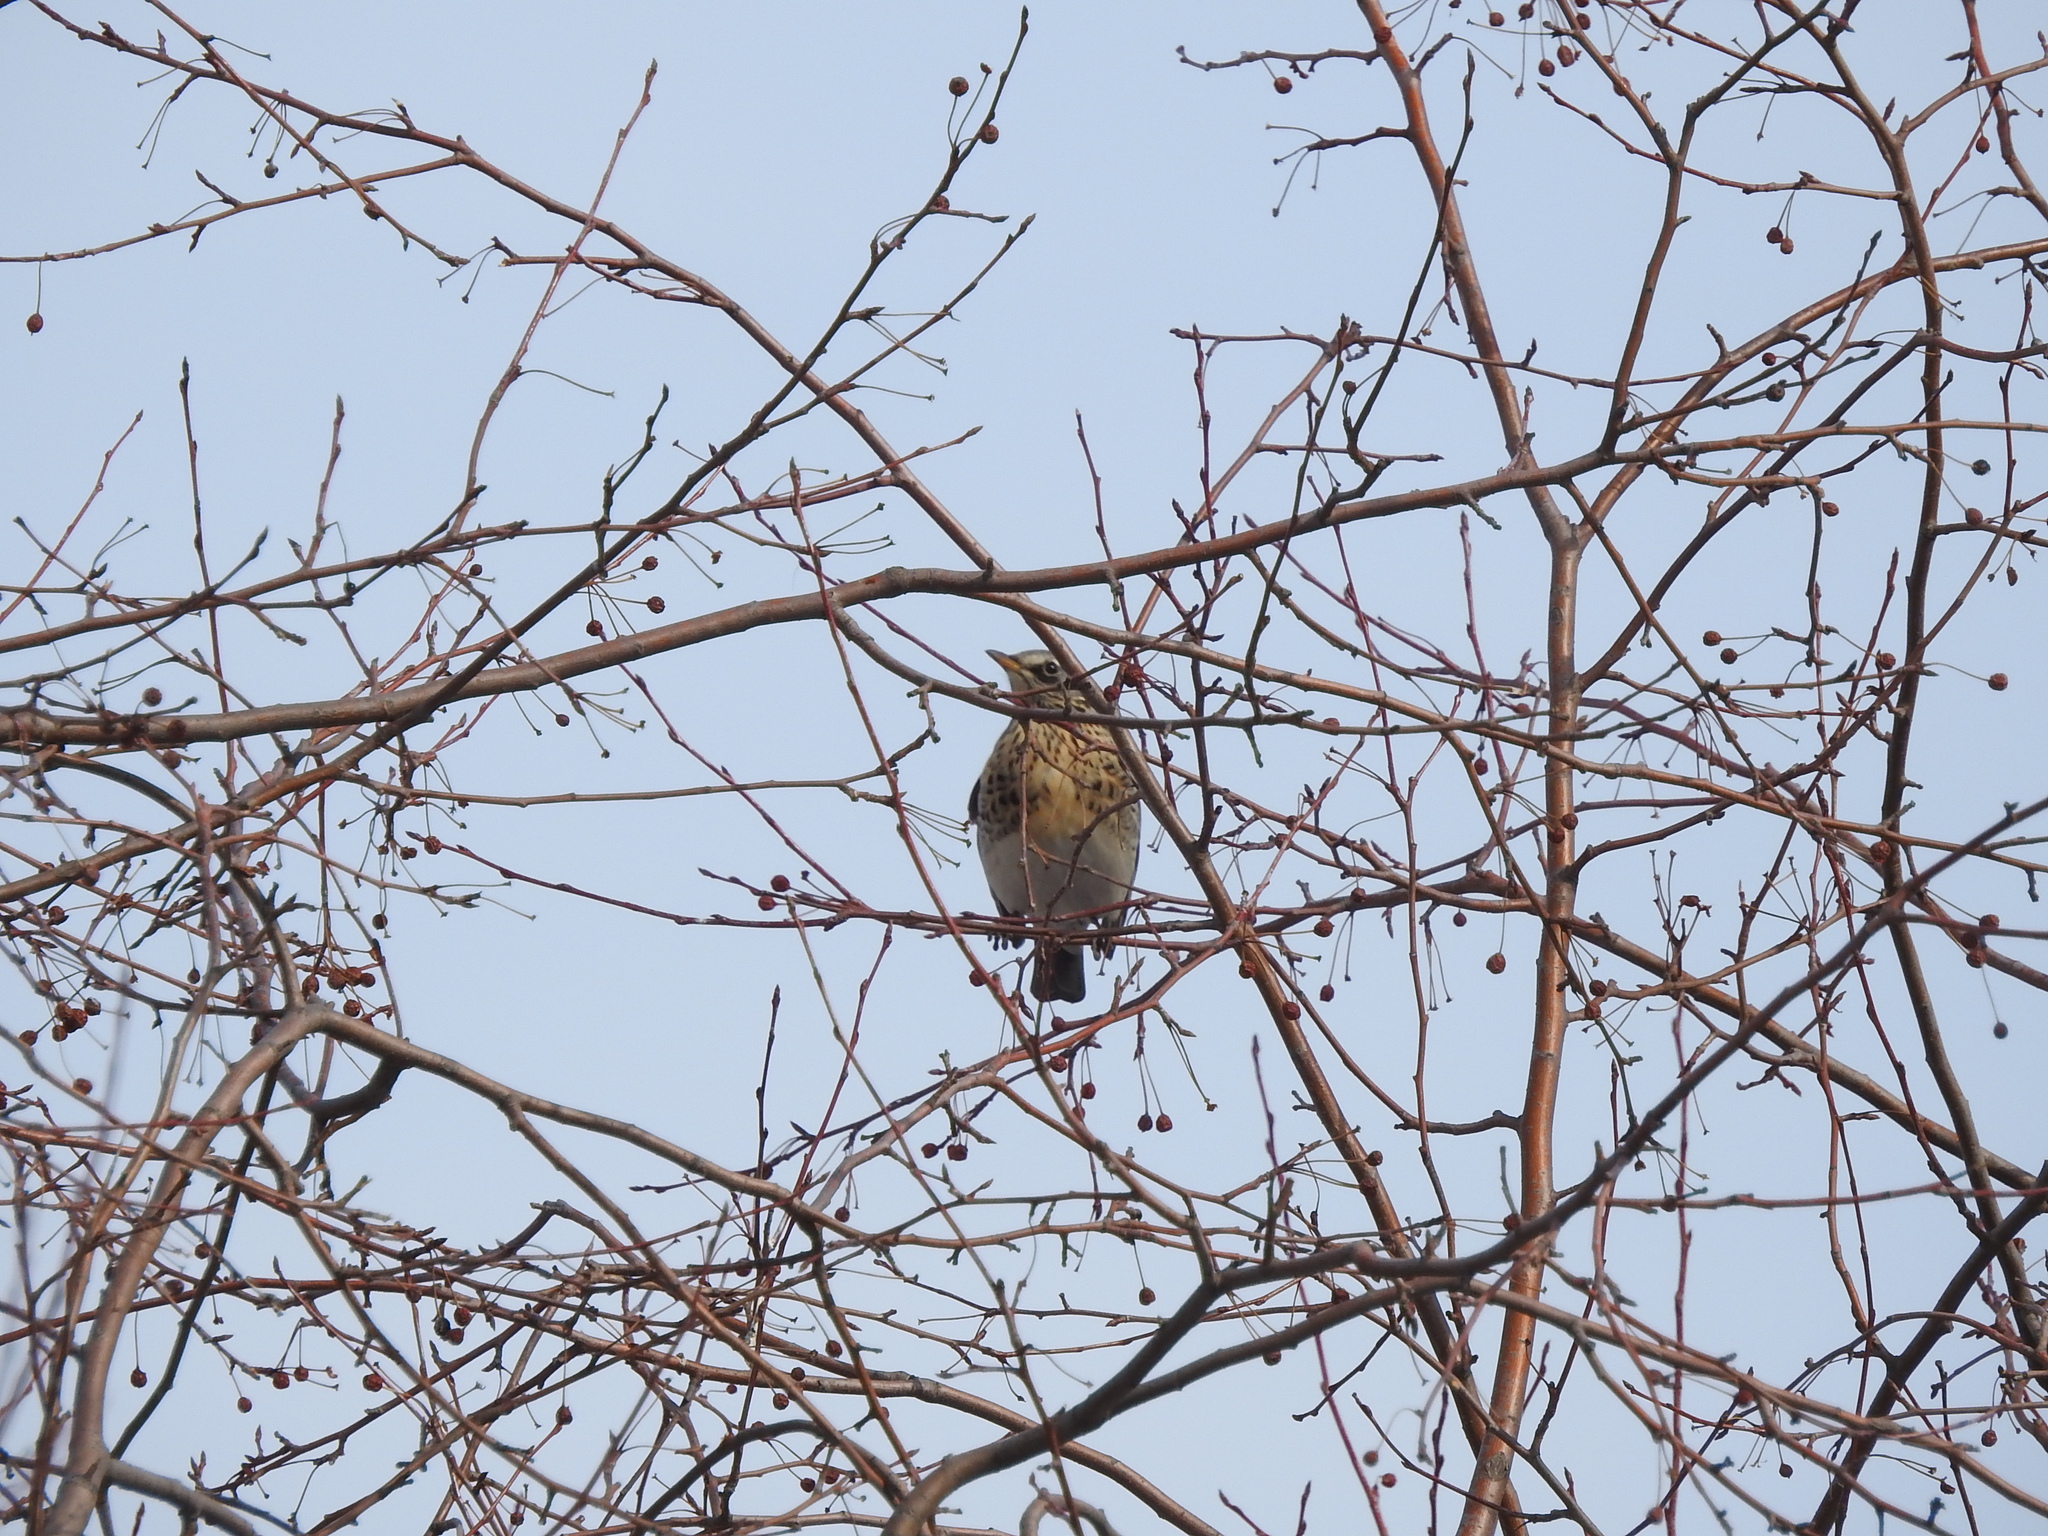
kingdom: Animalia
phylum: Chordata
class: Aves
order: Passeriformes
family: Turdidae
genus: Turdus
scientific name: Turdus pilaris
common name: Fieldfare
